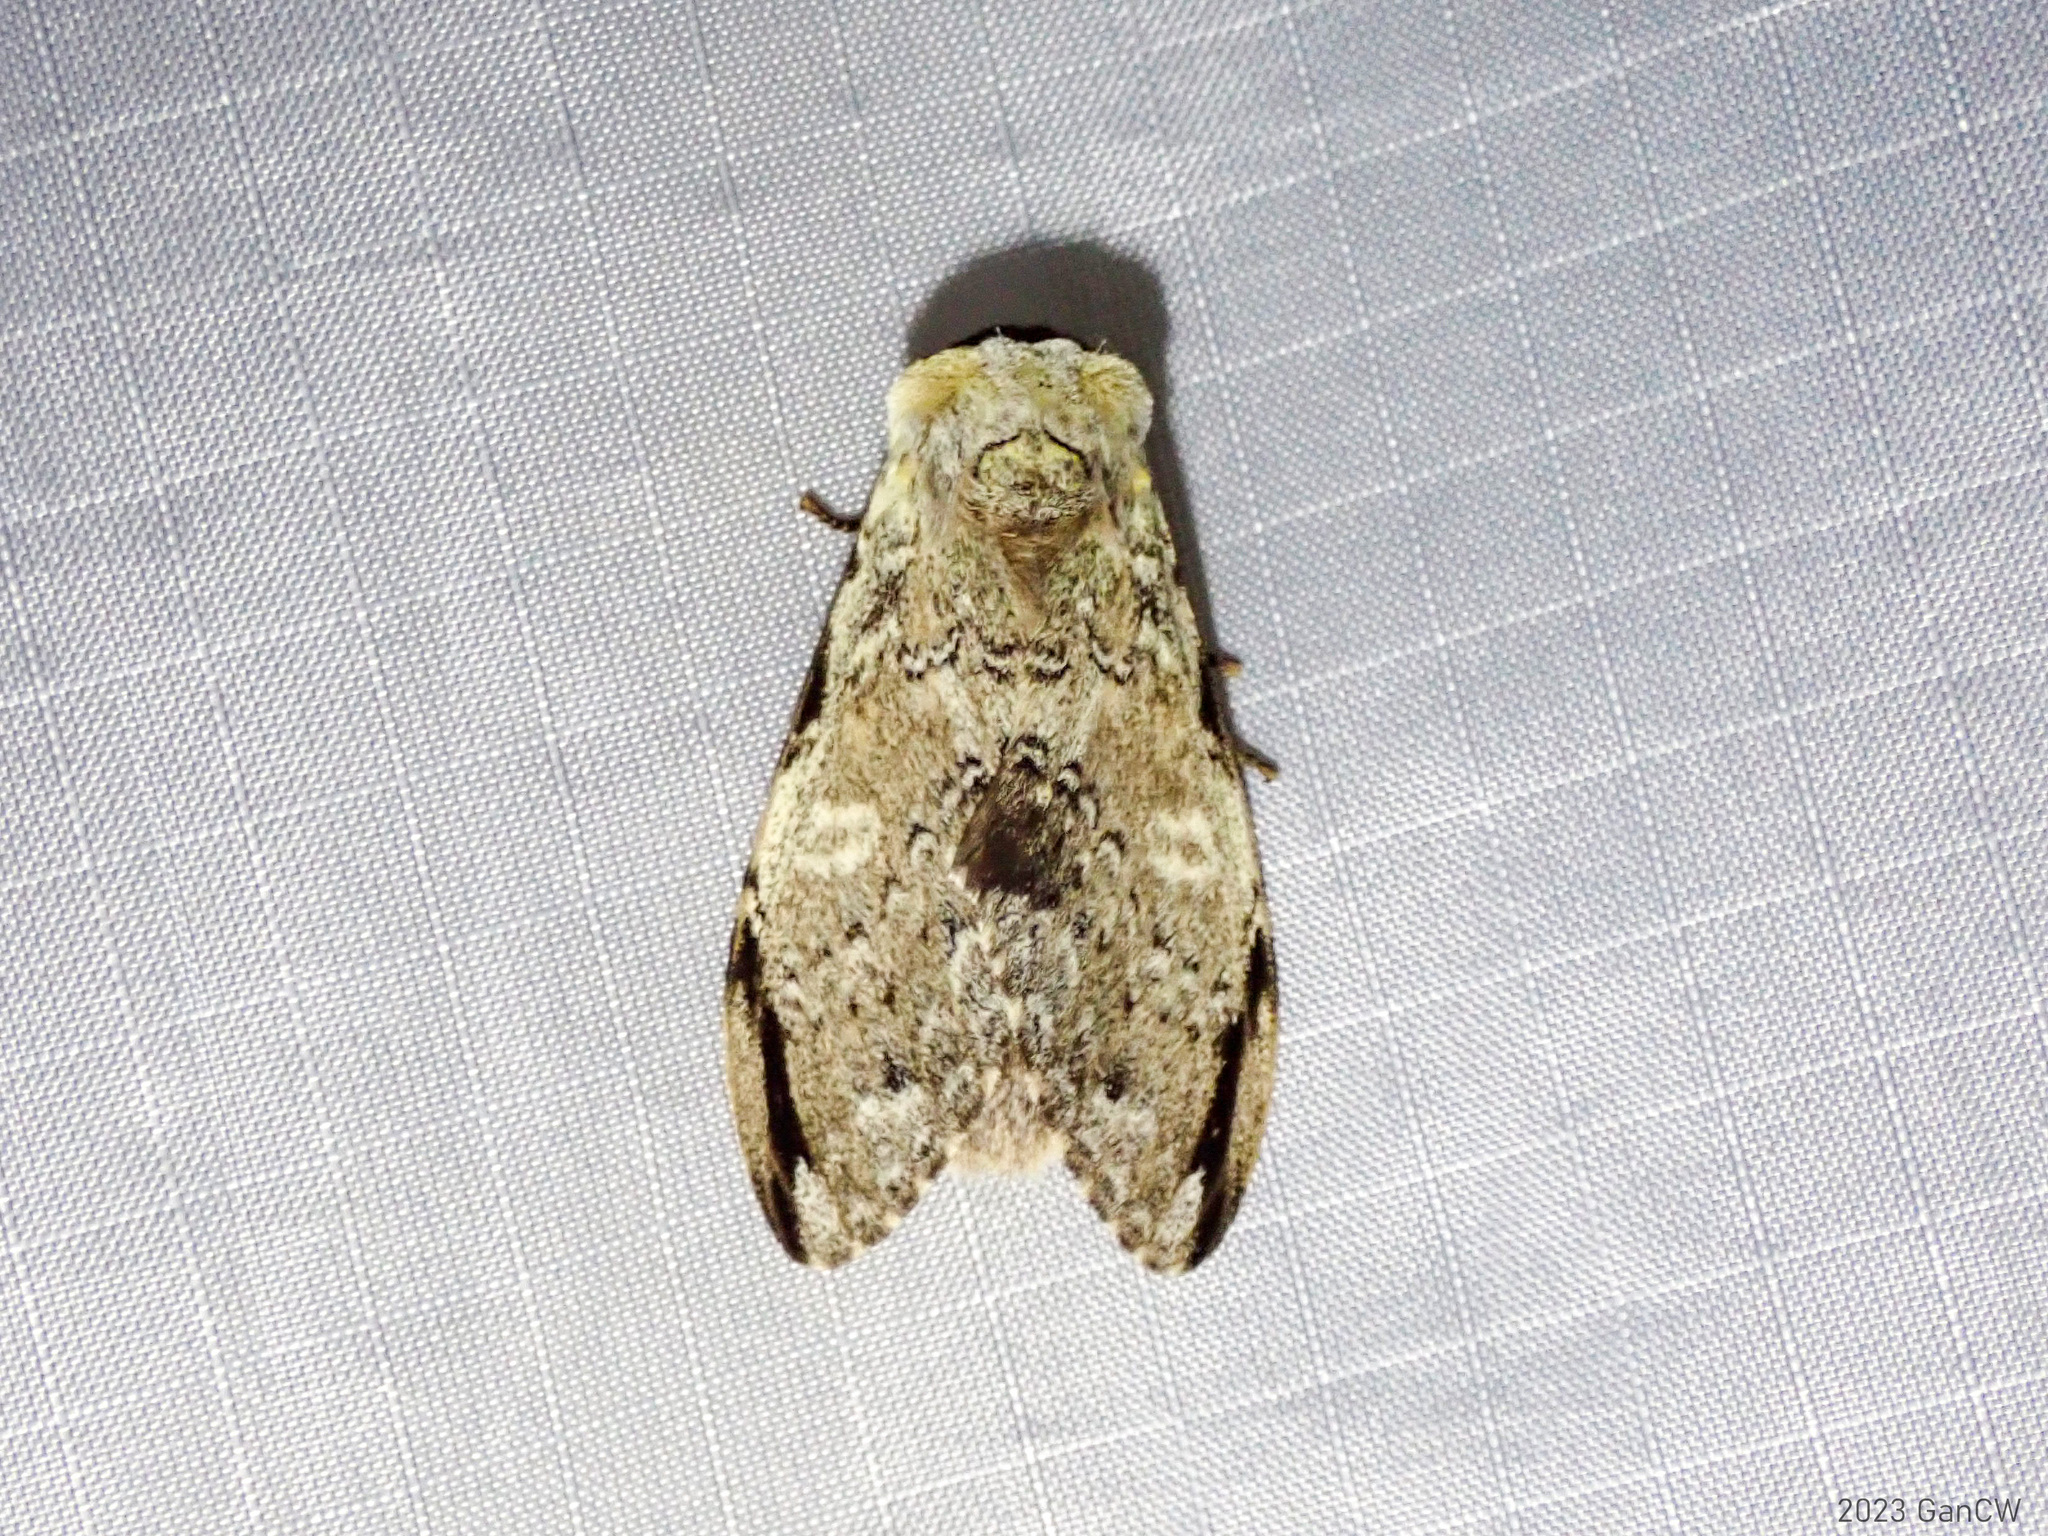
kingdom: Animalia
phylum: Arthropoda
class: Insecta
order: Lepidoptera
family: Notodontidae
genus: Stauroplitis
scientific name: Stauroplitis accomodus
